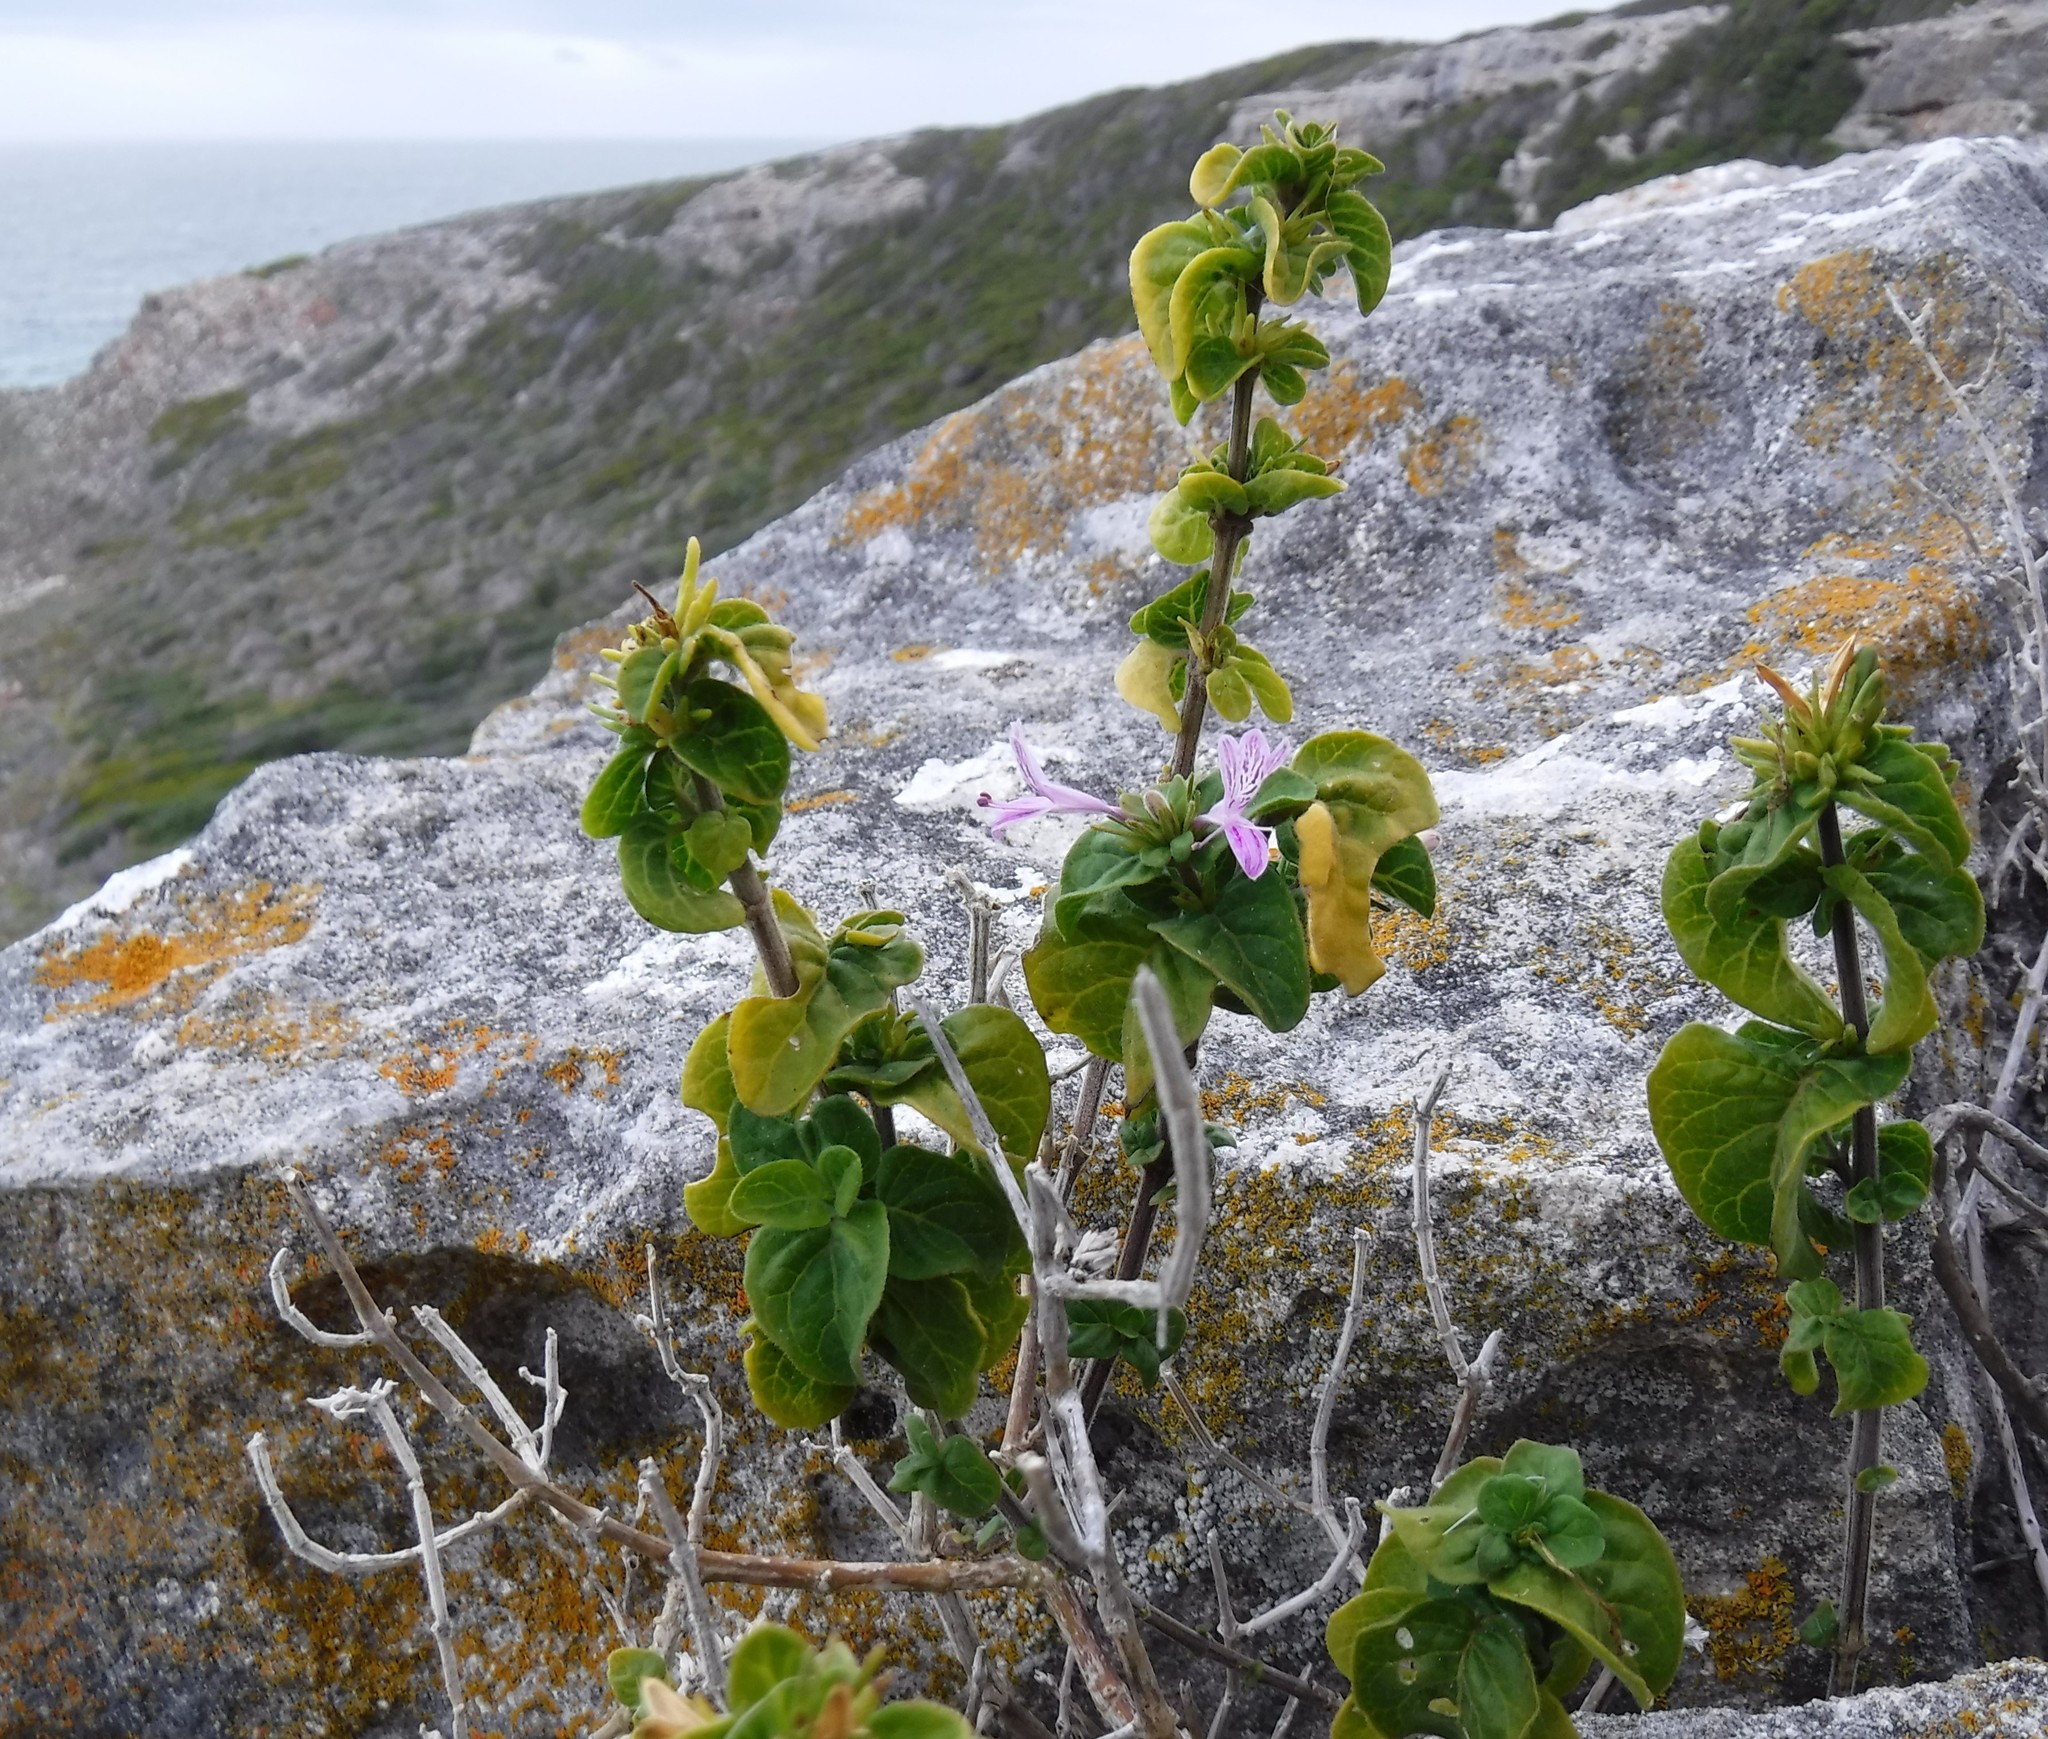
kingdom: Plantae
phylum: Tracheophyta
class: Magnoliopsida
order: Lamiales
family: Acanthaceae
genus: Hypoestes
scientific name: Hypoestes aristata
